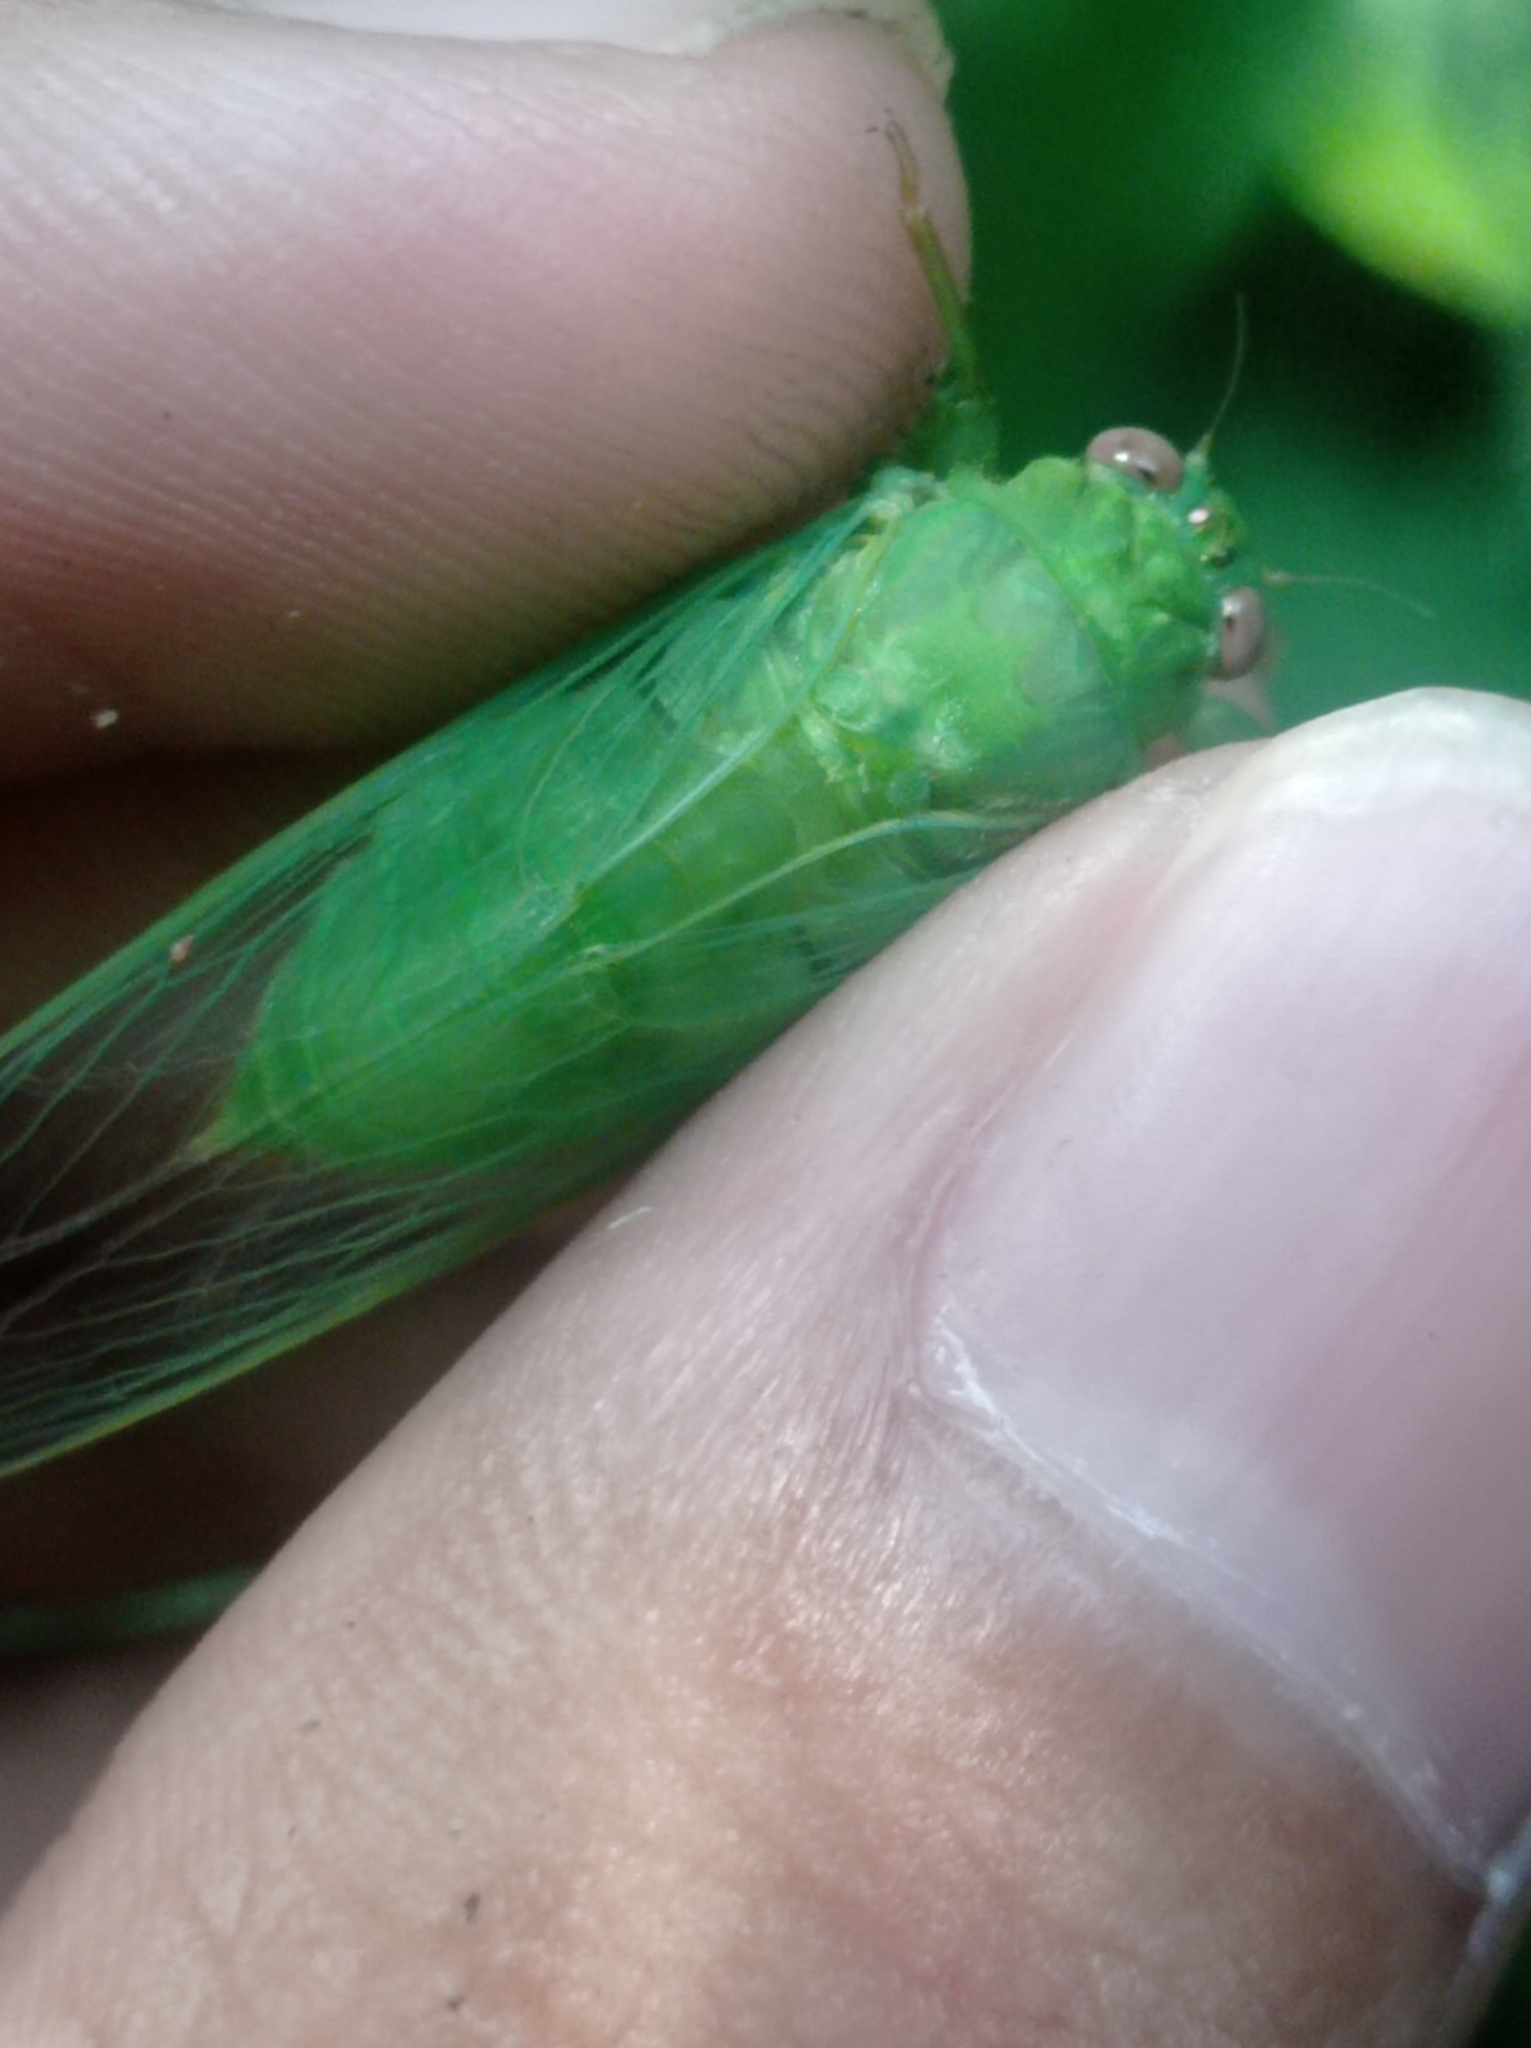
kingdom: Animalia
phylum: Arthropoda
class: Insecta
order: Hemiptera
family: Cicadidae
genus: Baeturia
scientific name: Baeturia laureli
